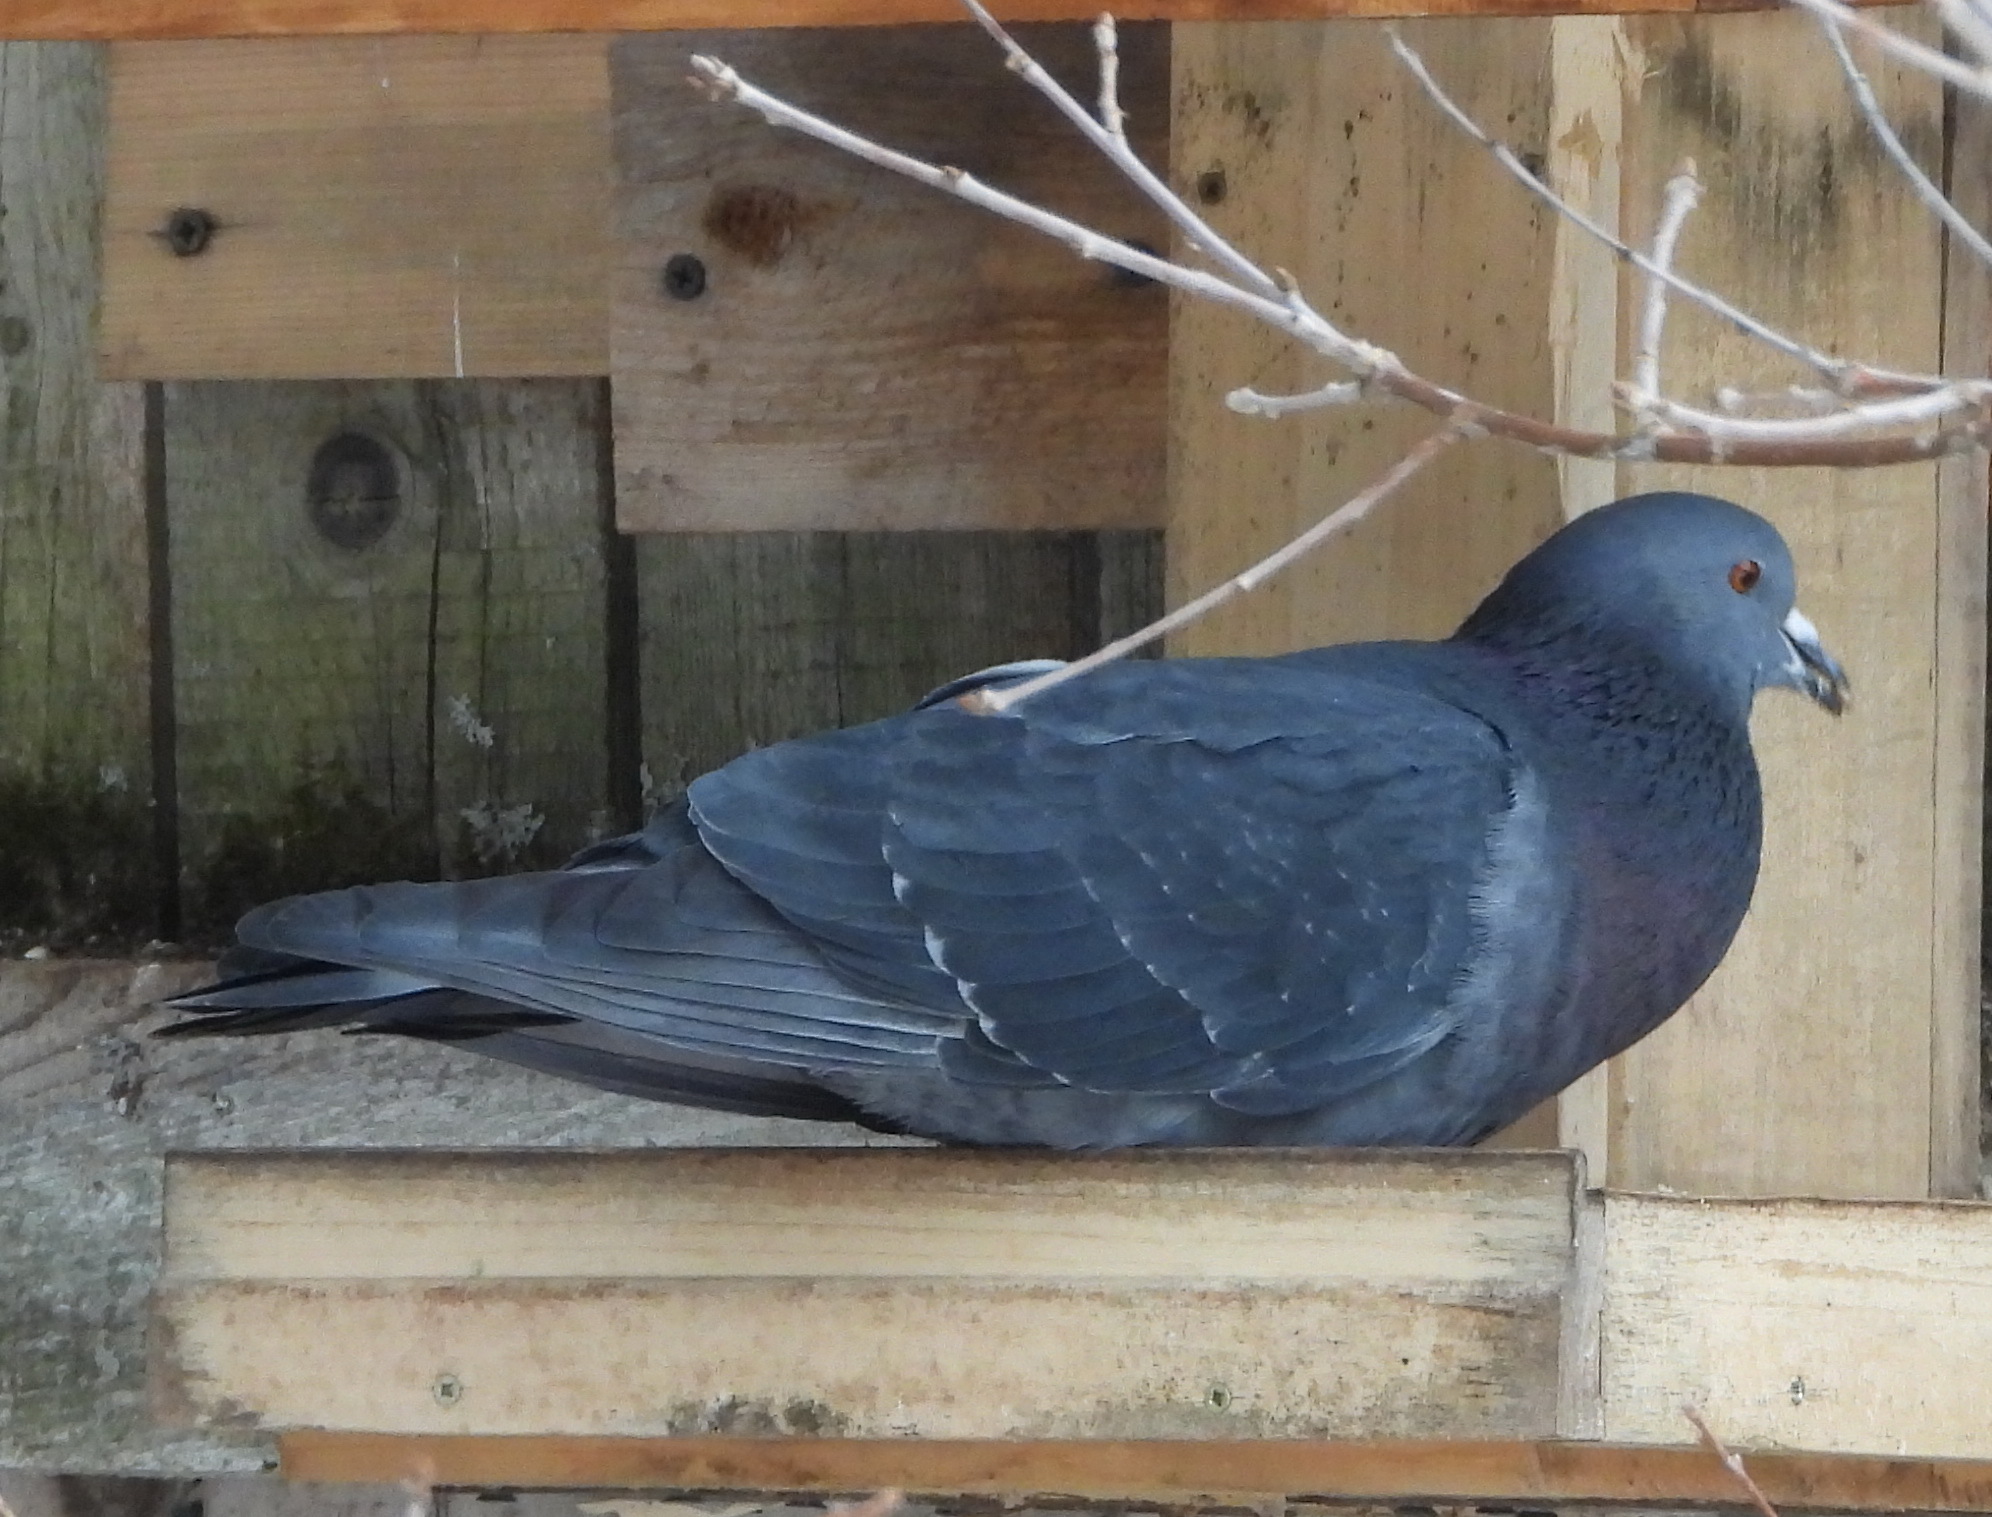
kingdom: Animalia
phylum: Chordata
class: Aves
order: Columbiformes
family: Columbidae
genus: Columba
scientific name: Columba livia
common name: Rock pigeon
